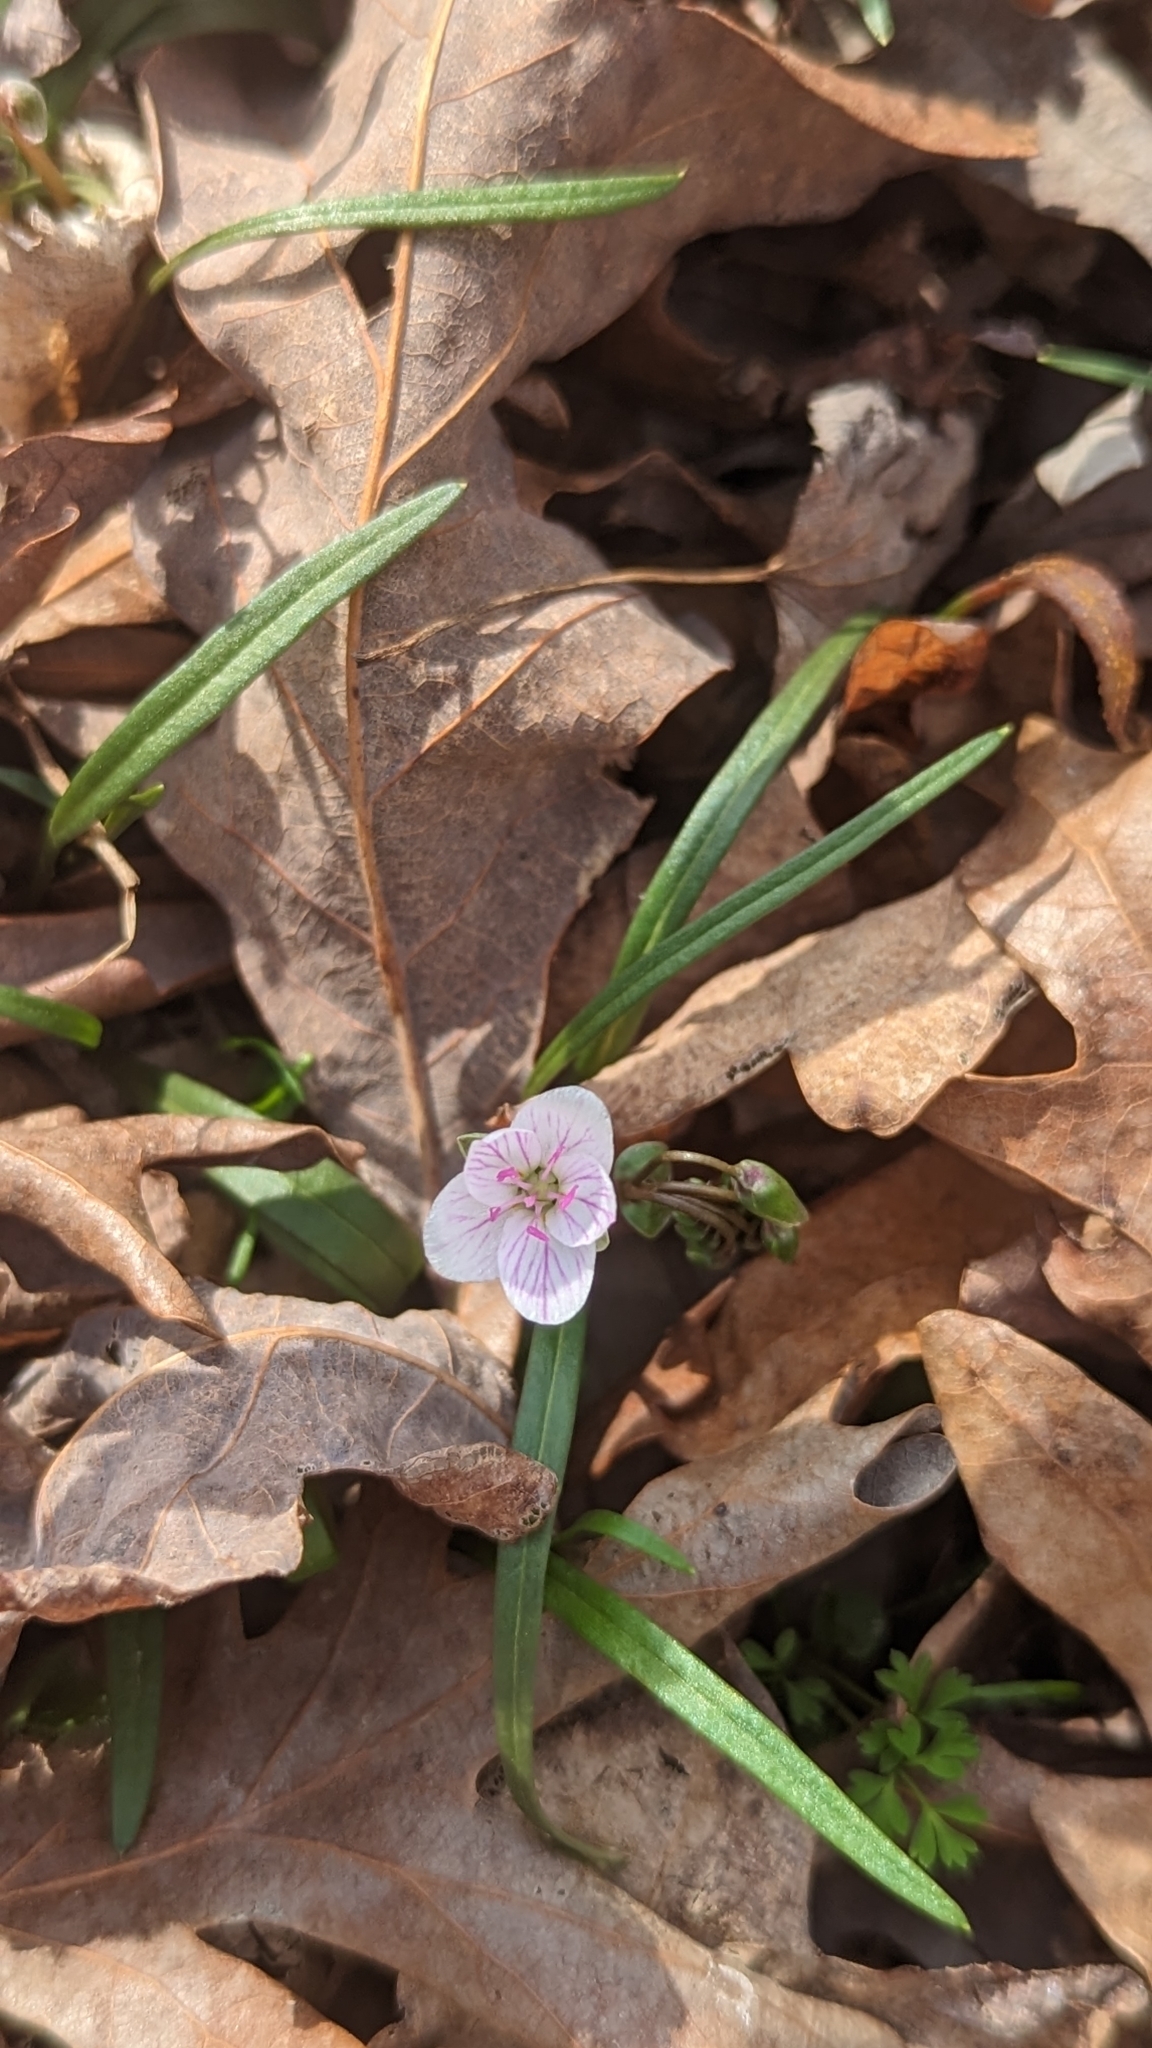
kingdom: Plantae
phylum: Tracheophyta
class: Magnoliopsida
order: Caryophyllales
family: Montiaceae
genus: Claytonia
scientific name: Claytonia virginica
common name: Virginia springbeauty
